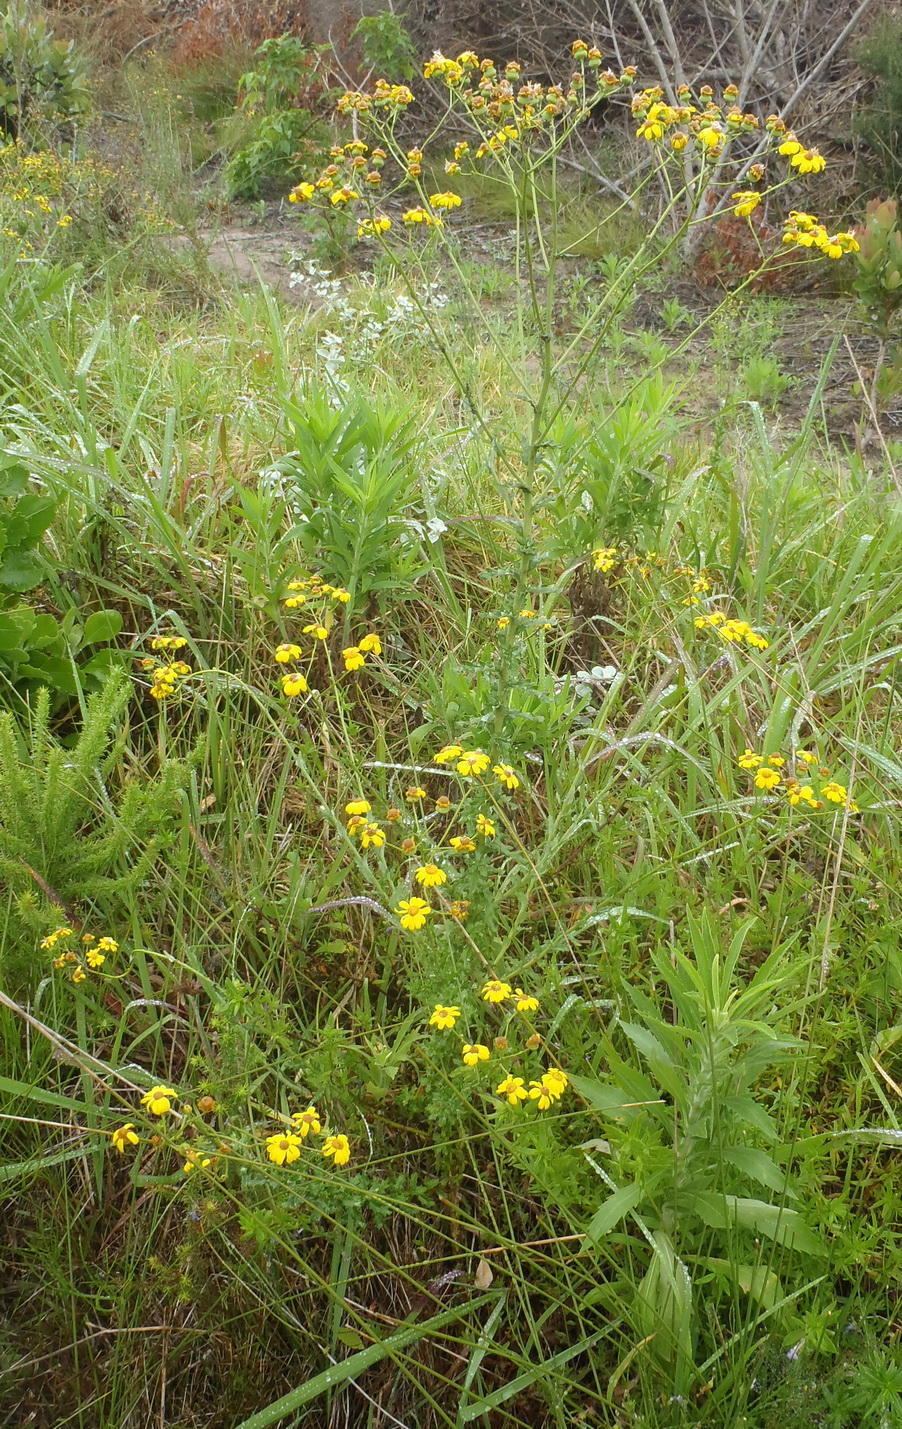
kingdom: Plantae
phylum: Tracheophyta
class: Magnoliopsida
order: Asterales
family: Asteraceae
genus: Senecio
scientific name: Senecio ilicifolius
